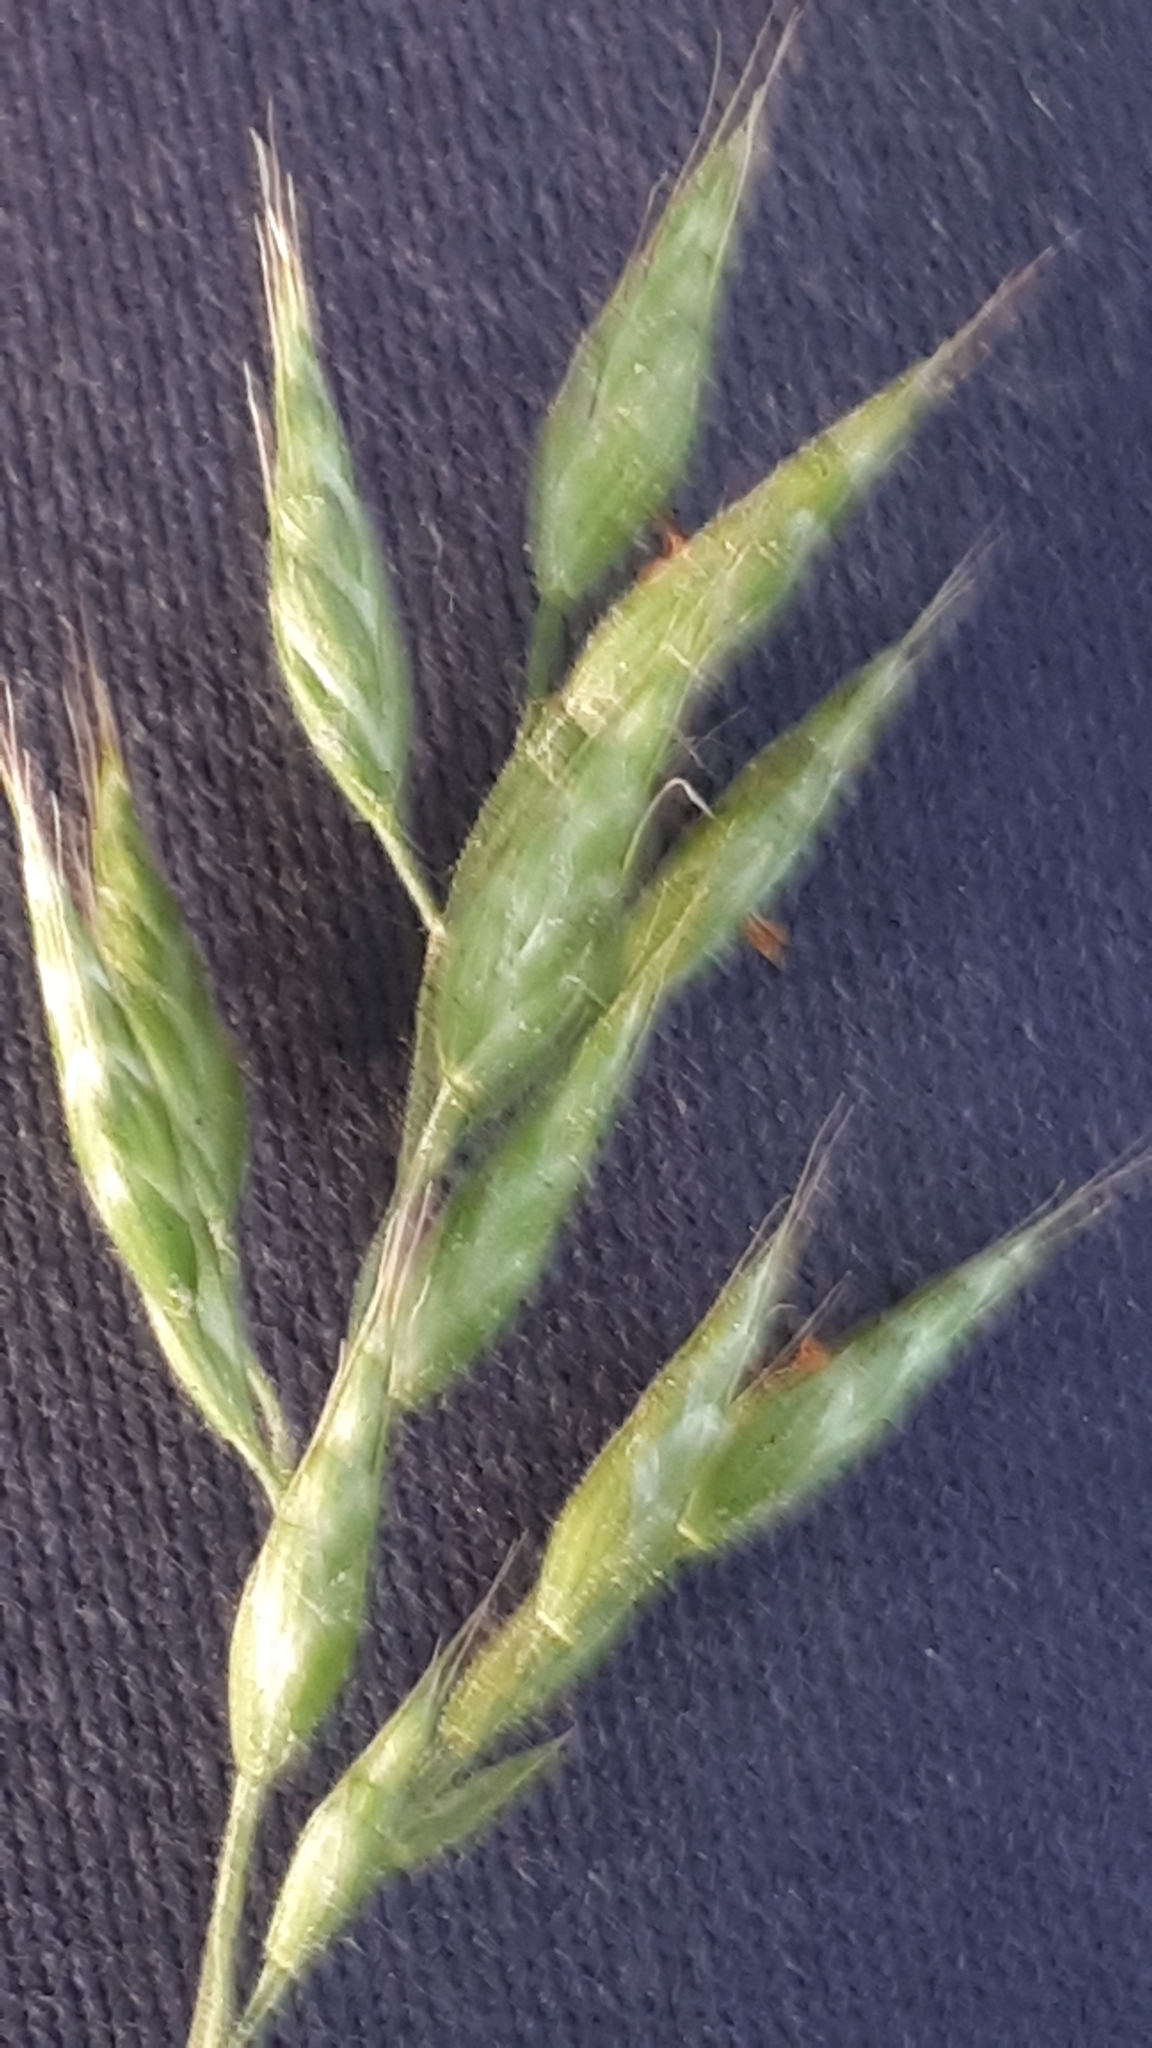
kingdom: Plantae
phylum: Tracheophyta
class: Liliopsida
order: Poales
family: Poaceae
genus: Bromus
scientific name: Bromus hordeaceus
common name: Soft brome
